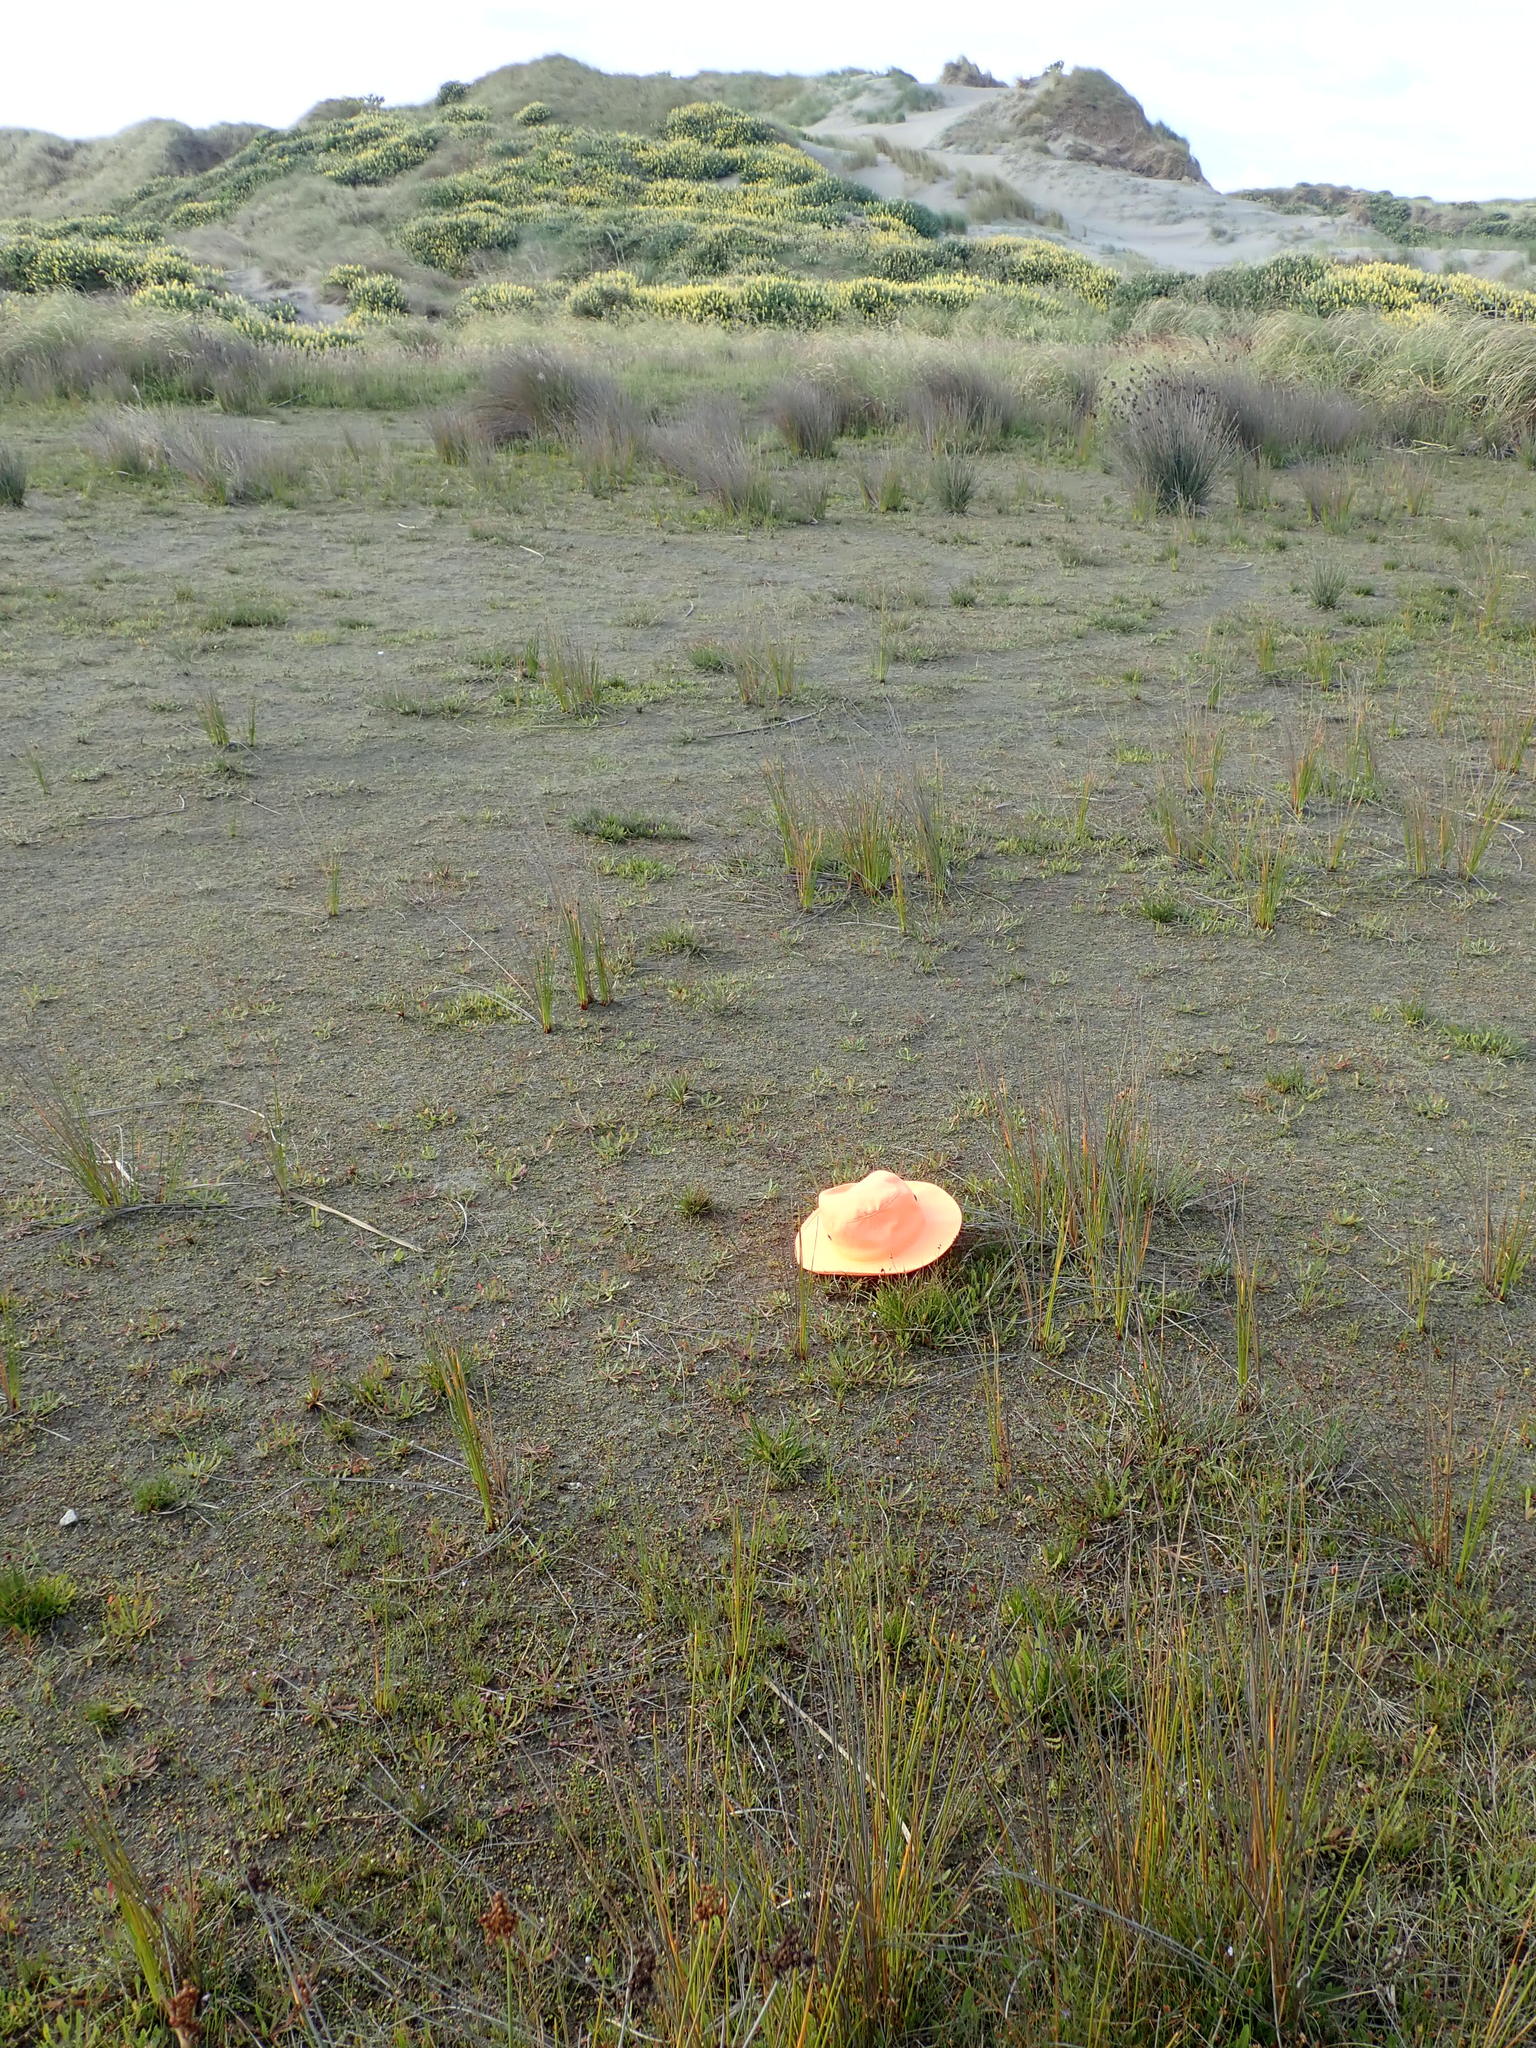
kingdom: Plantae
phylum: Tracheophyta
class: Liliopsida
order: Alismatales
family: Juncaginaceae
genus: Triglochin
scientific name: Triglochin striata
